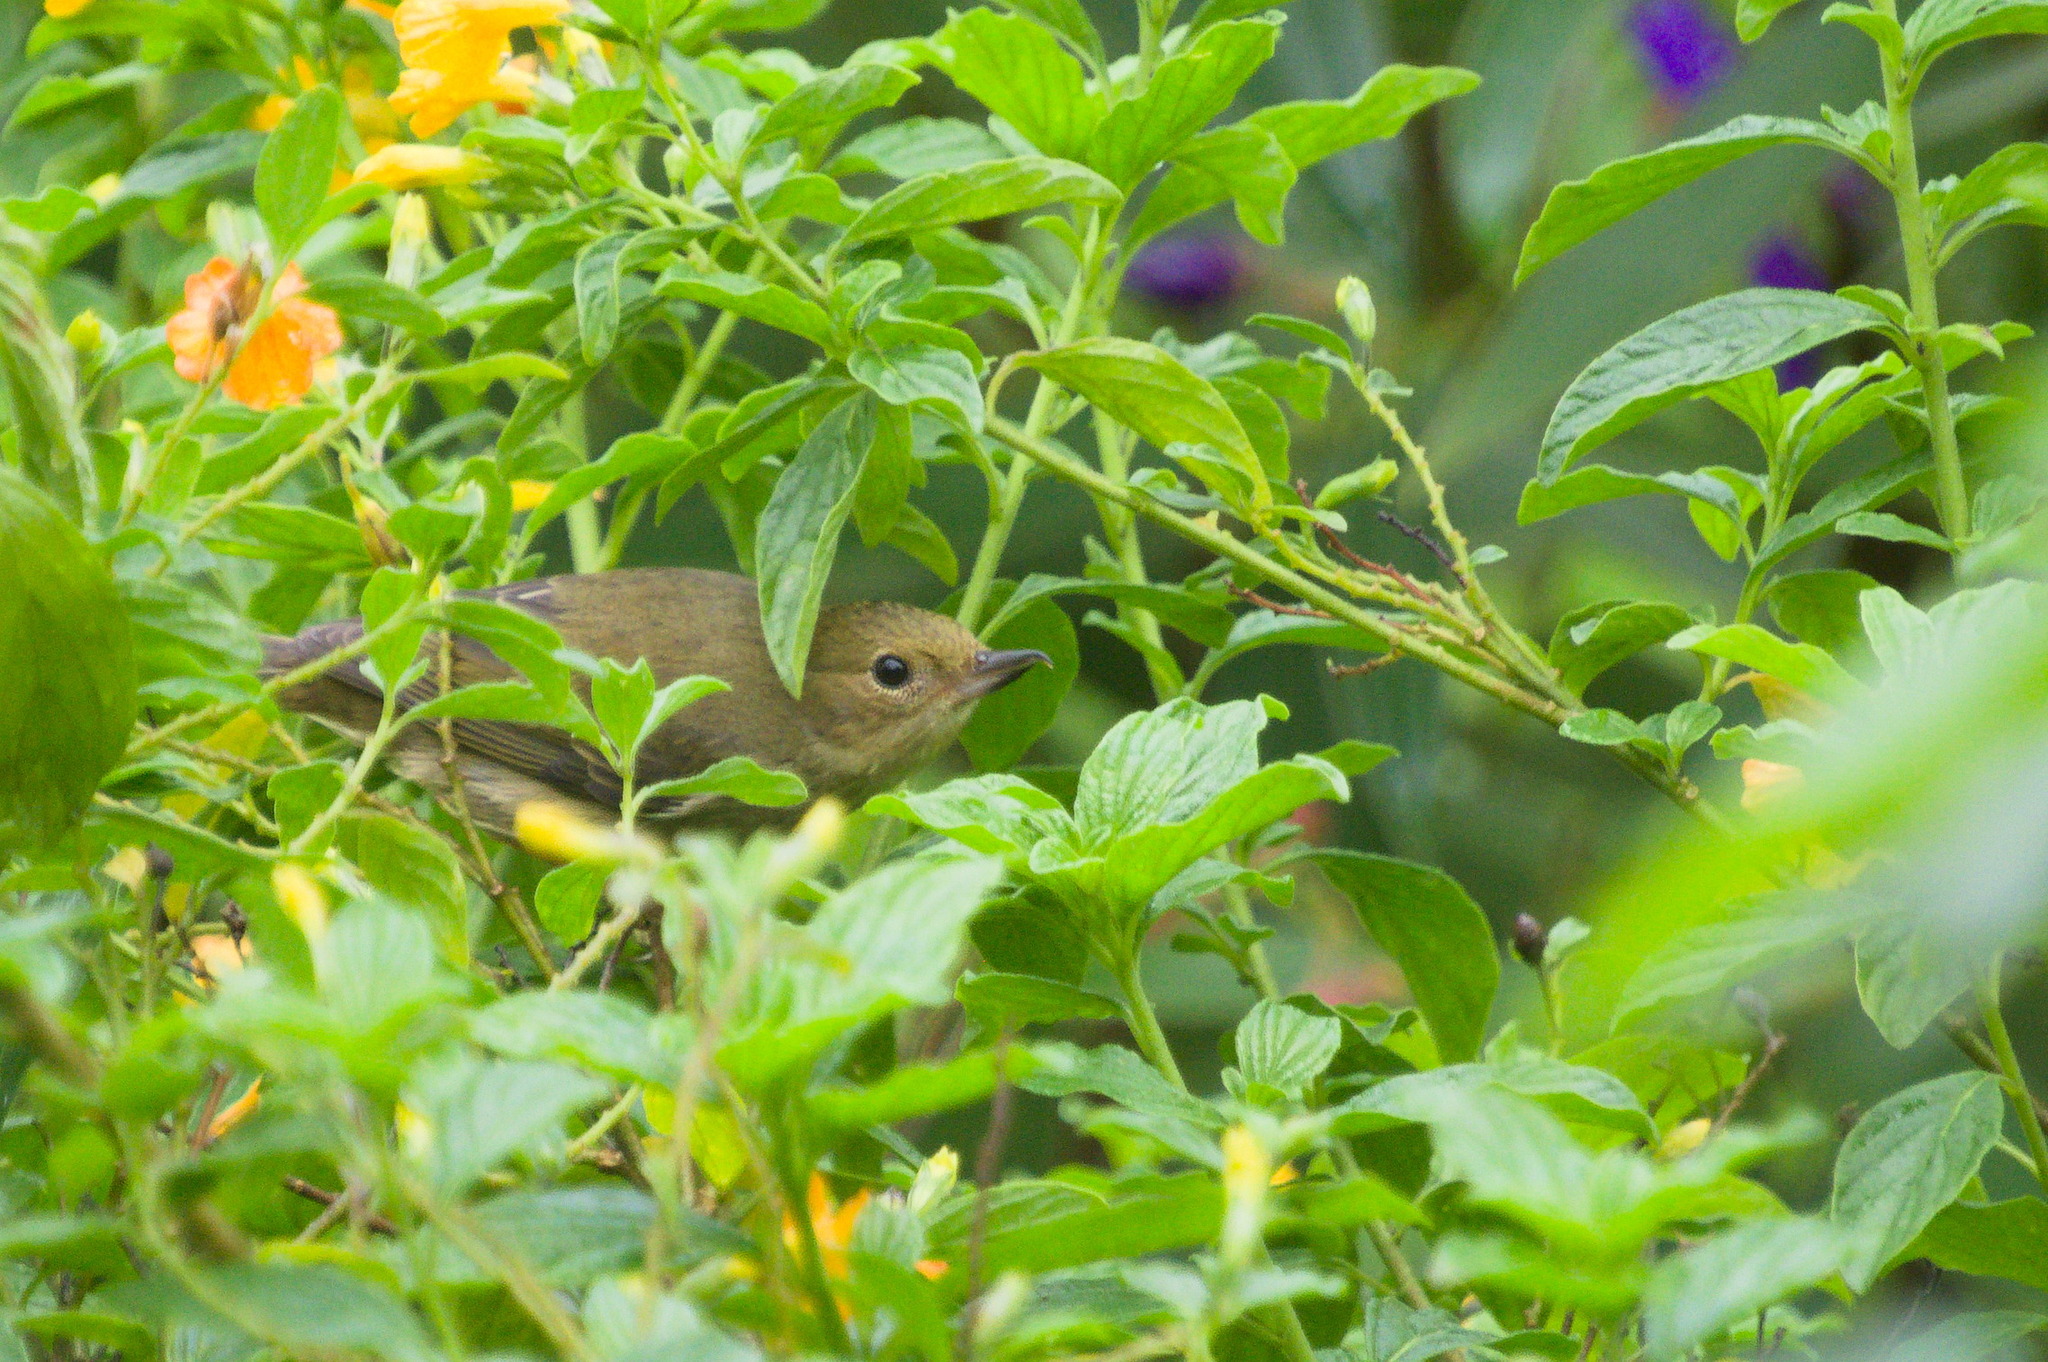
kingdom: Animalia
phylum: Chordata
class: Aves
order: Passeriformes
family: Thraupidae
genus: Diglossa
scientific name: Diglossa sittoides
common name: Rusty flowerpiercer
